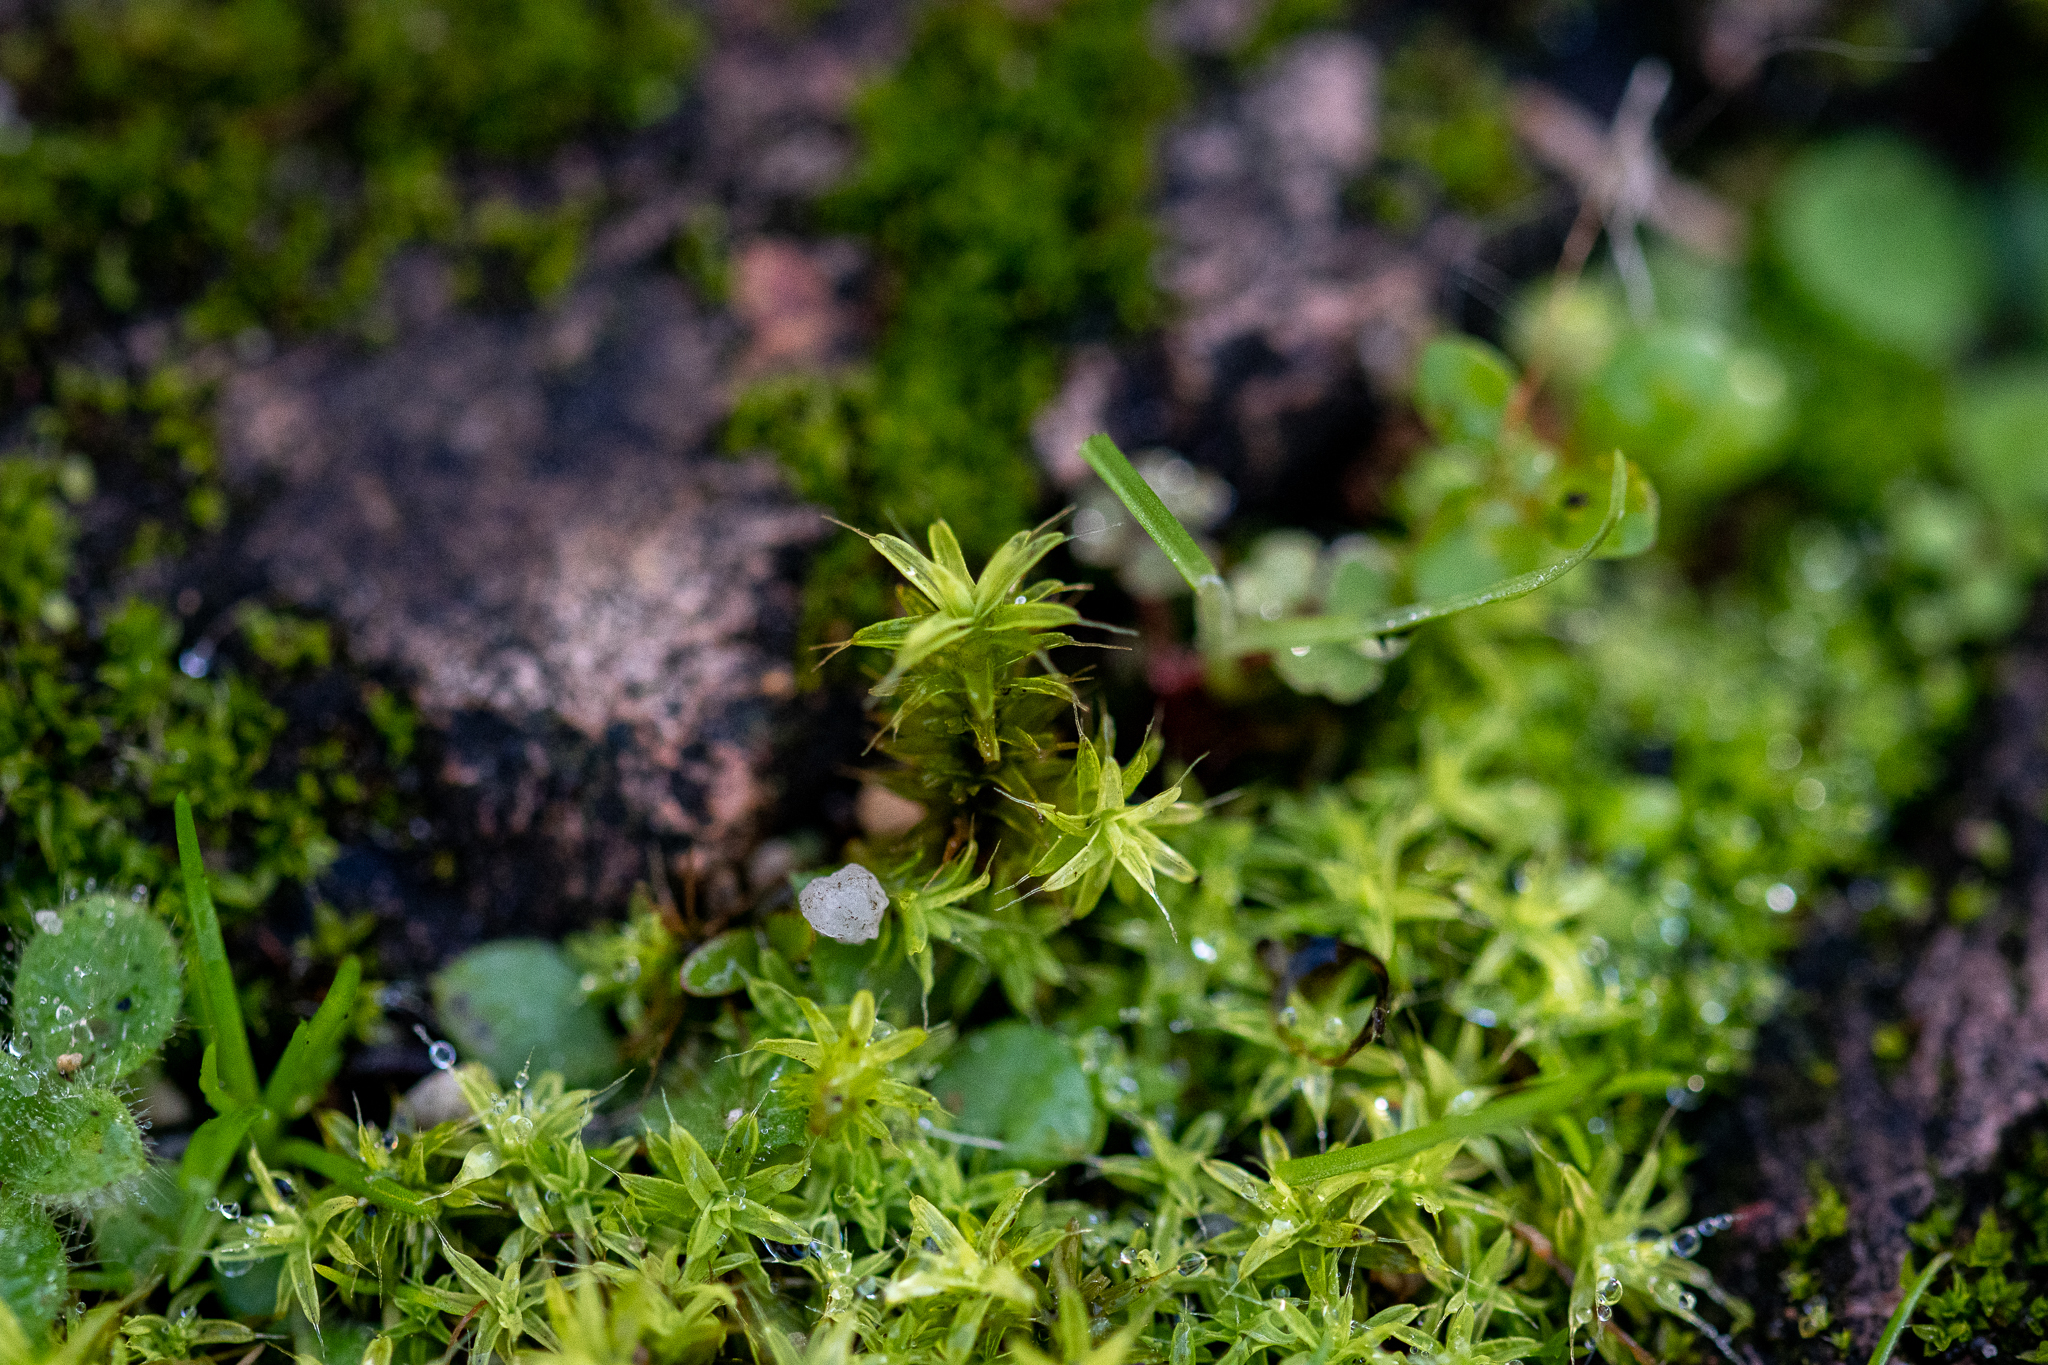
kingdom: Plantae
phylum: Bryophyta
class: Bryopsida
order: Pottiales
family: Pottiaceae
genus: Pseudocrossidium
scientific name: Pseudocrossidium crinitum
